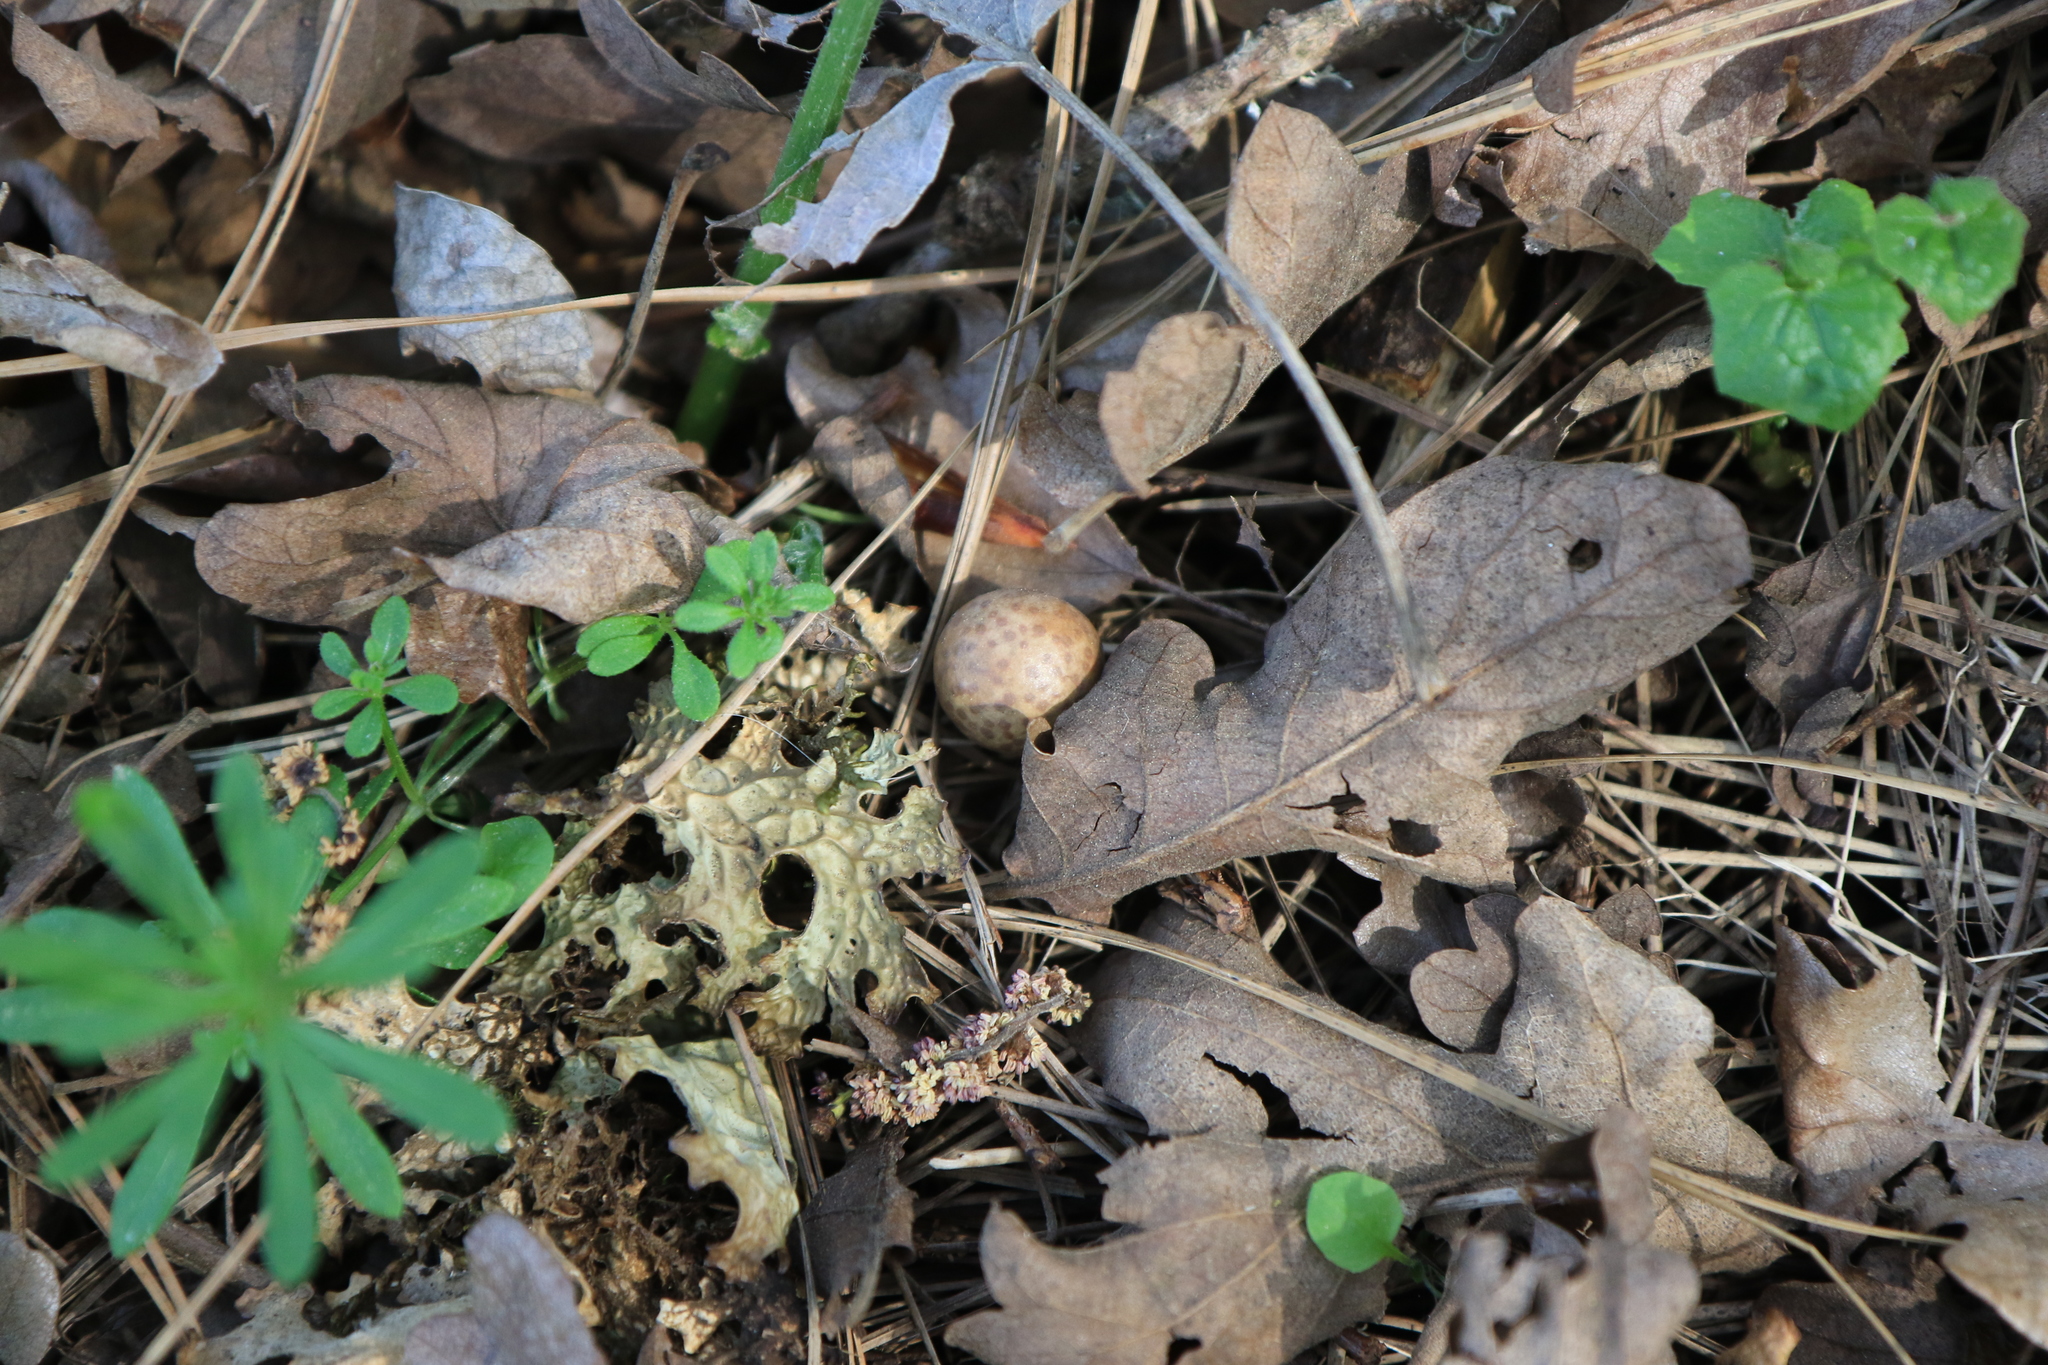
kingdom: Animalia
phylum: Arthropoda
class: Insecta
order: Hymenoptera
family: Cynipidae
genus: Cynips
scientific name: Cynips
